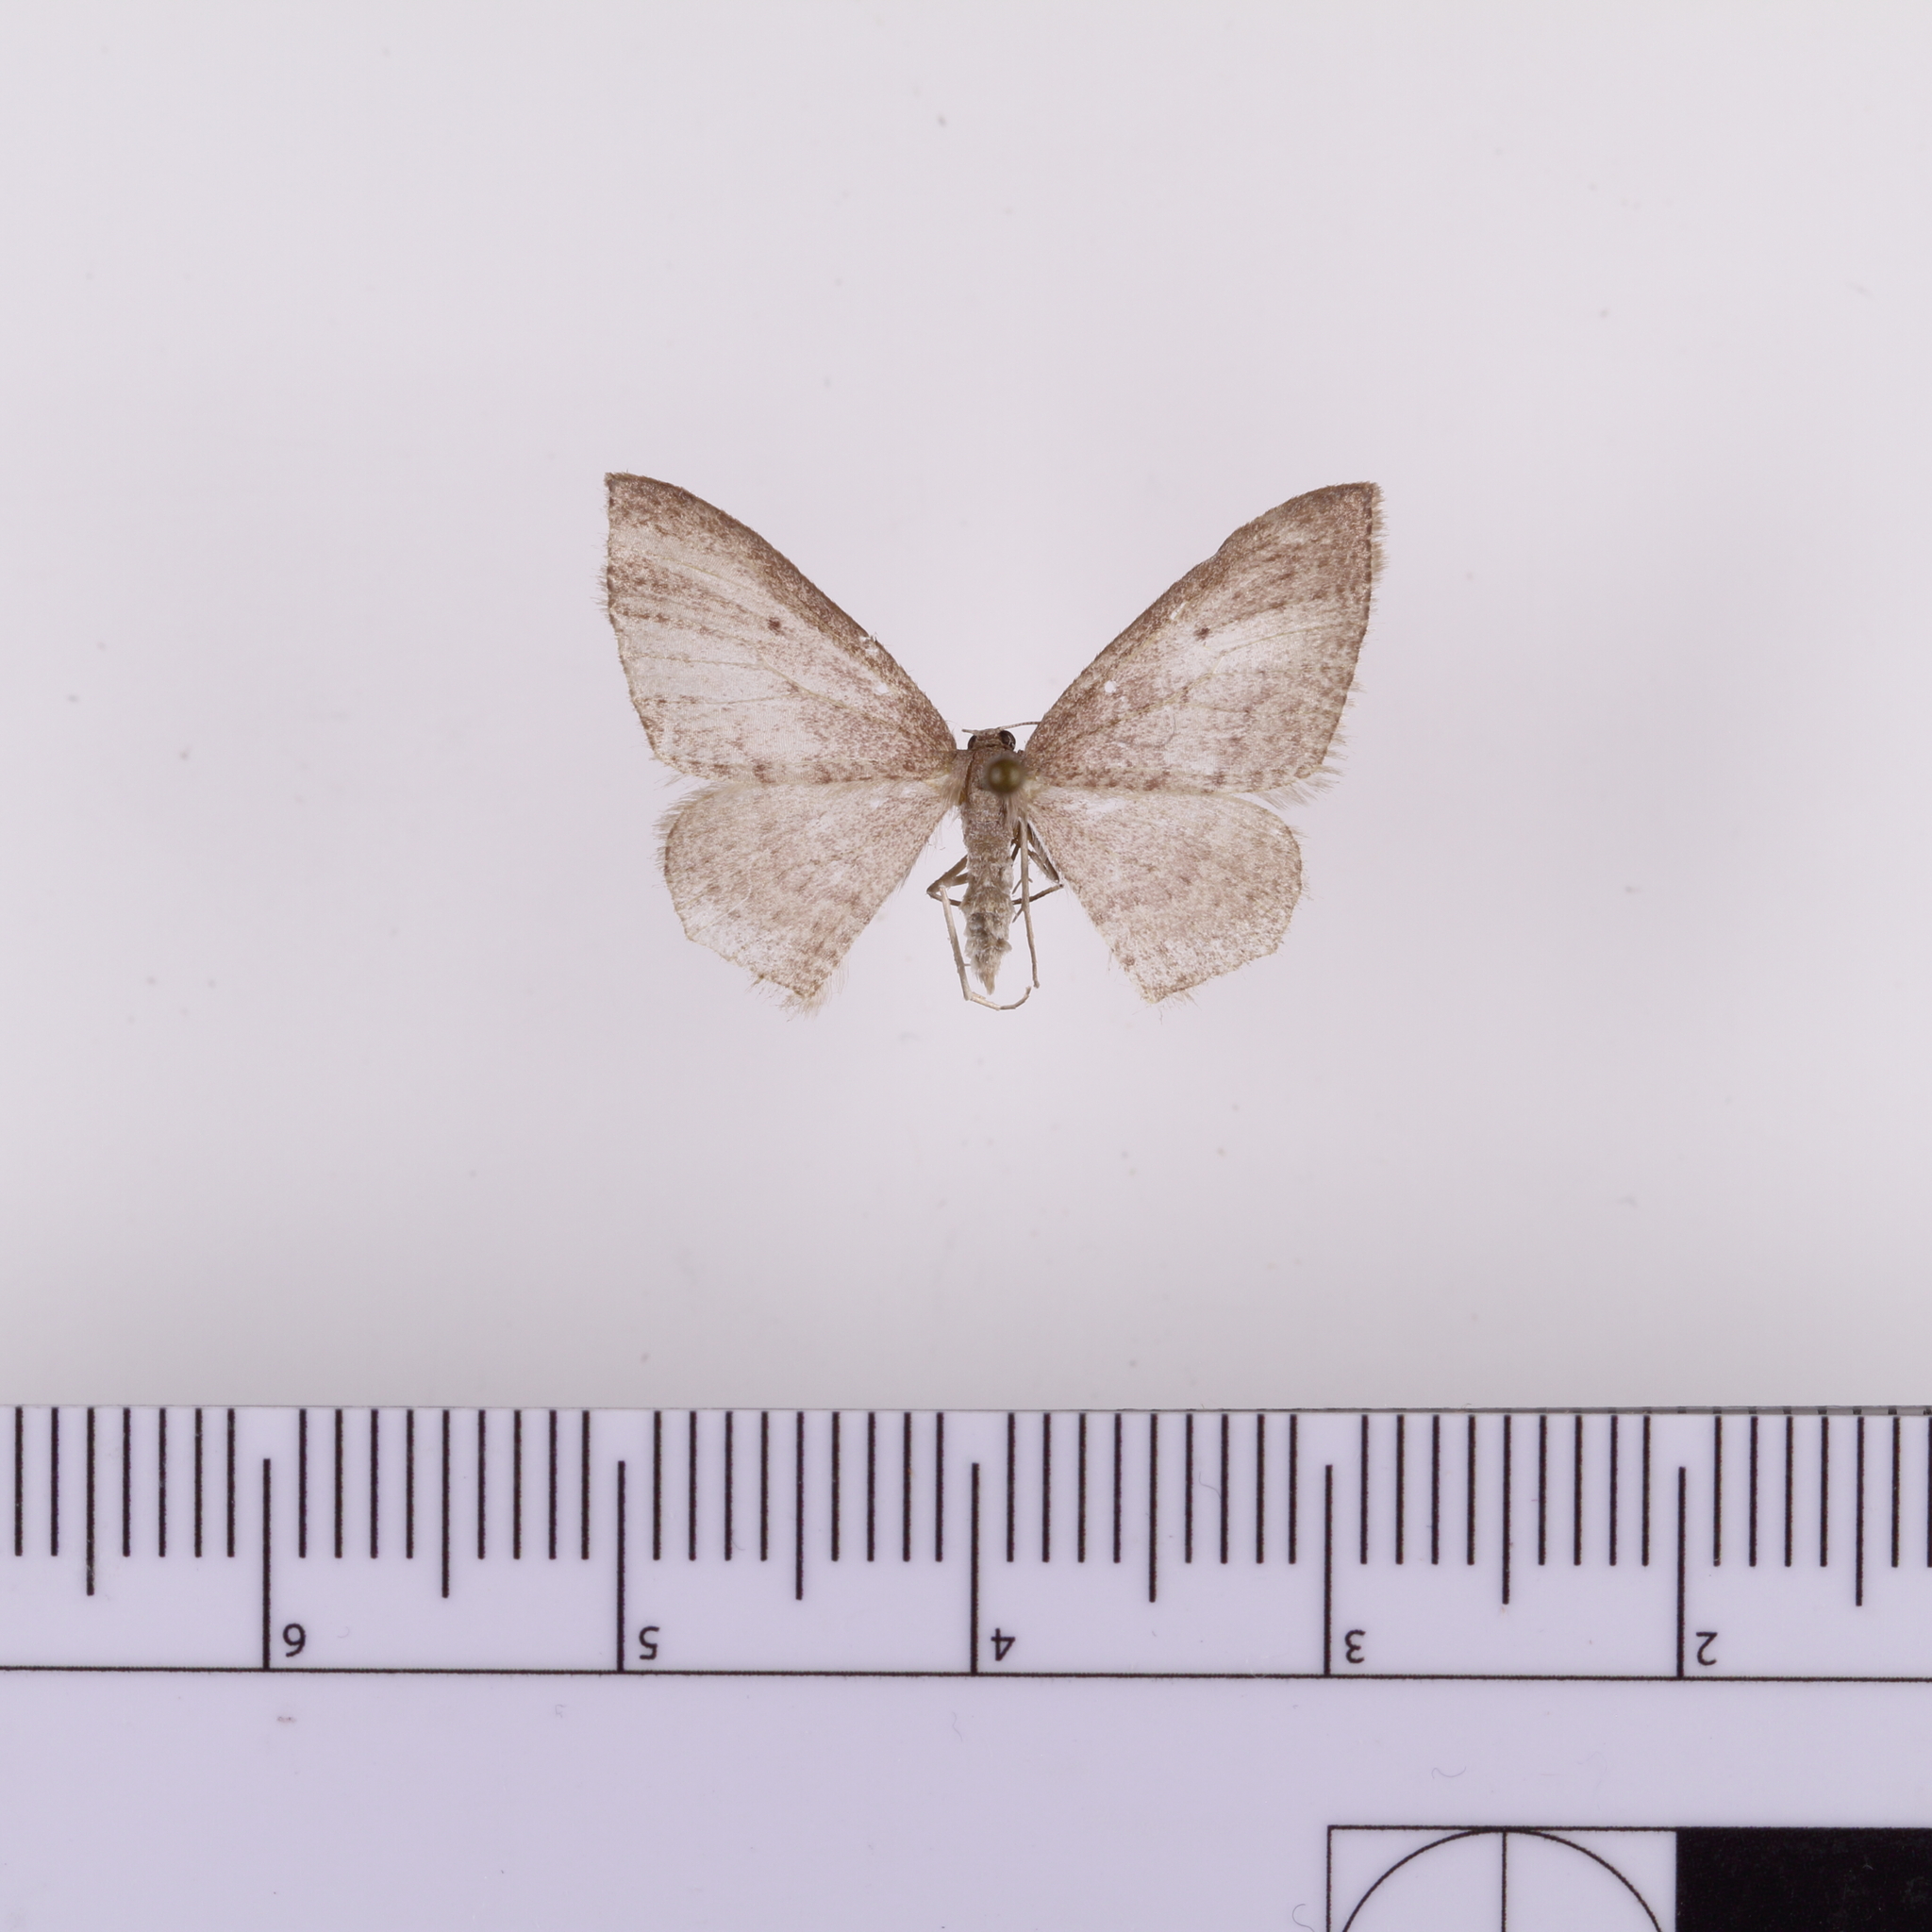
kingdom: Animalia
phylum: Arthropoda
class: Insecta
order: Lepidoptera
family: Geometridae
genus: Poecilasthena
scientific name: Poecilasthena subpurpureata
